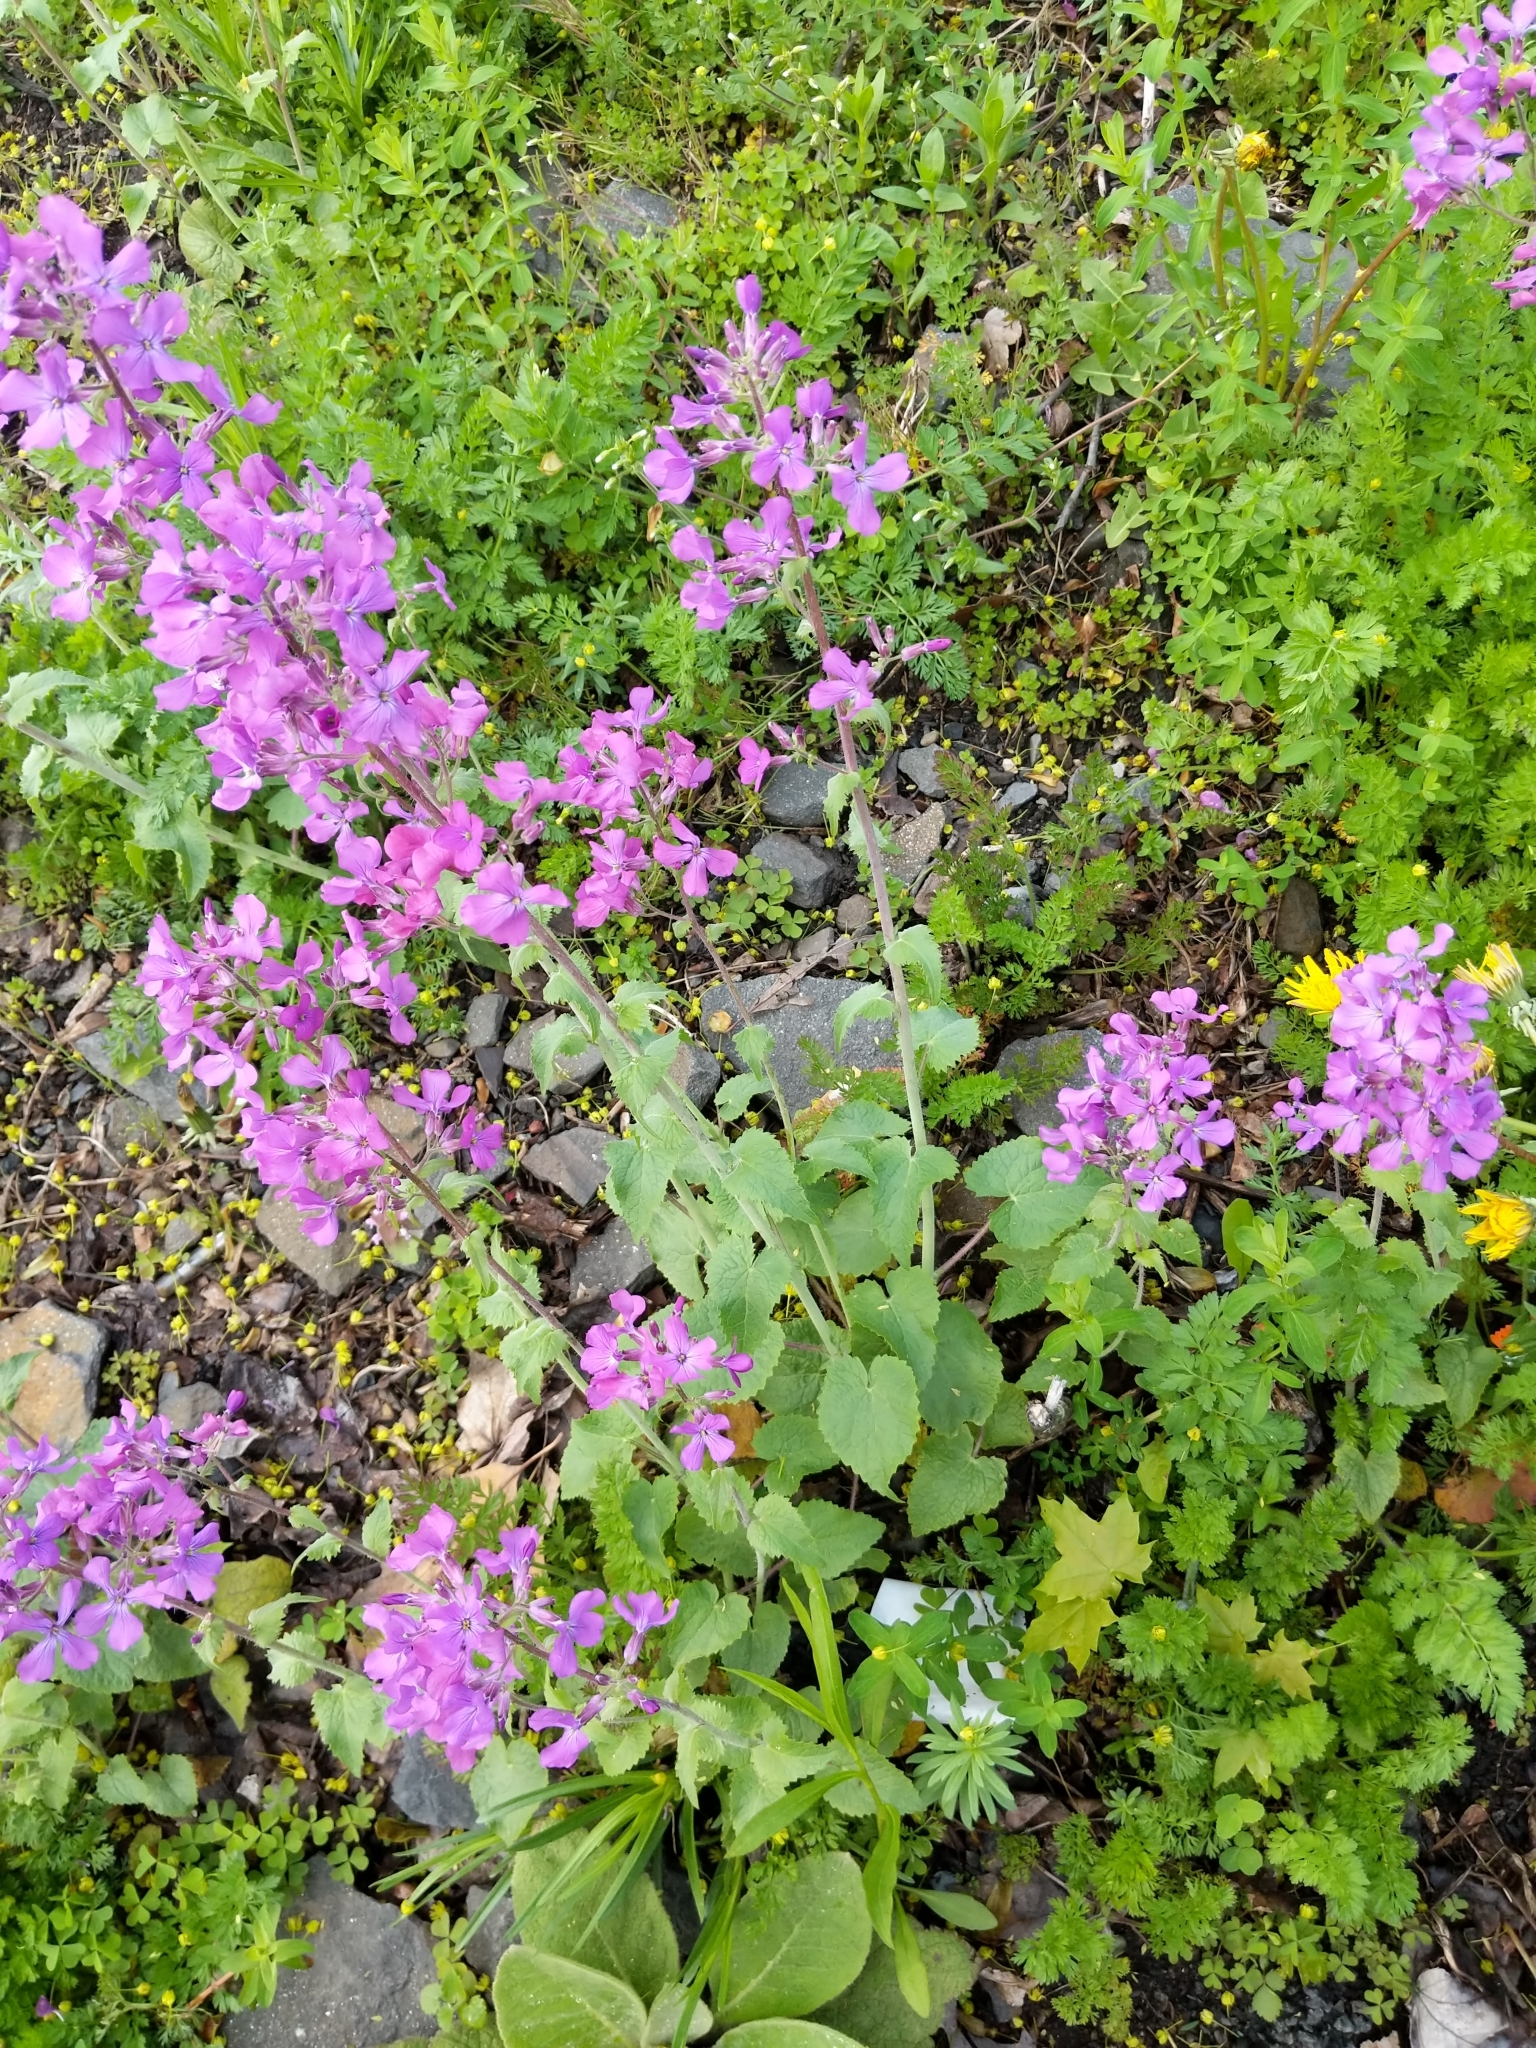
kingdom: Plantae
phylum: Tracheophyta
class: Magnoliopsida
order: Brassicales
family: Brassicaceae
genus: Lunaria
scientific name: Lunaria annua
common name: Honesty
